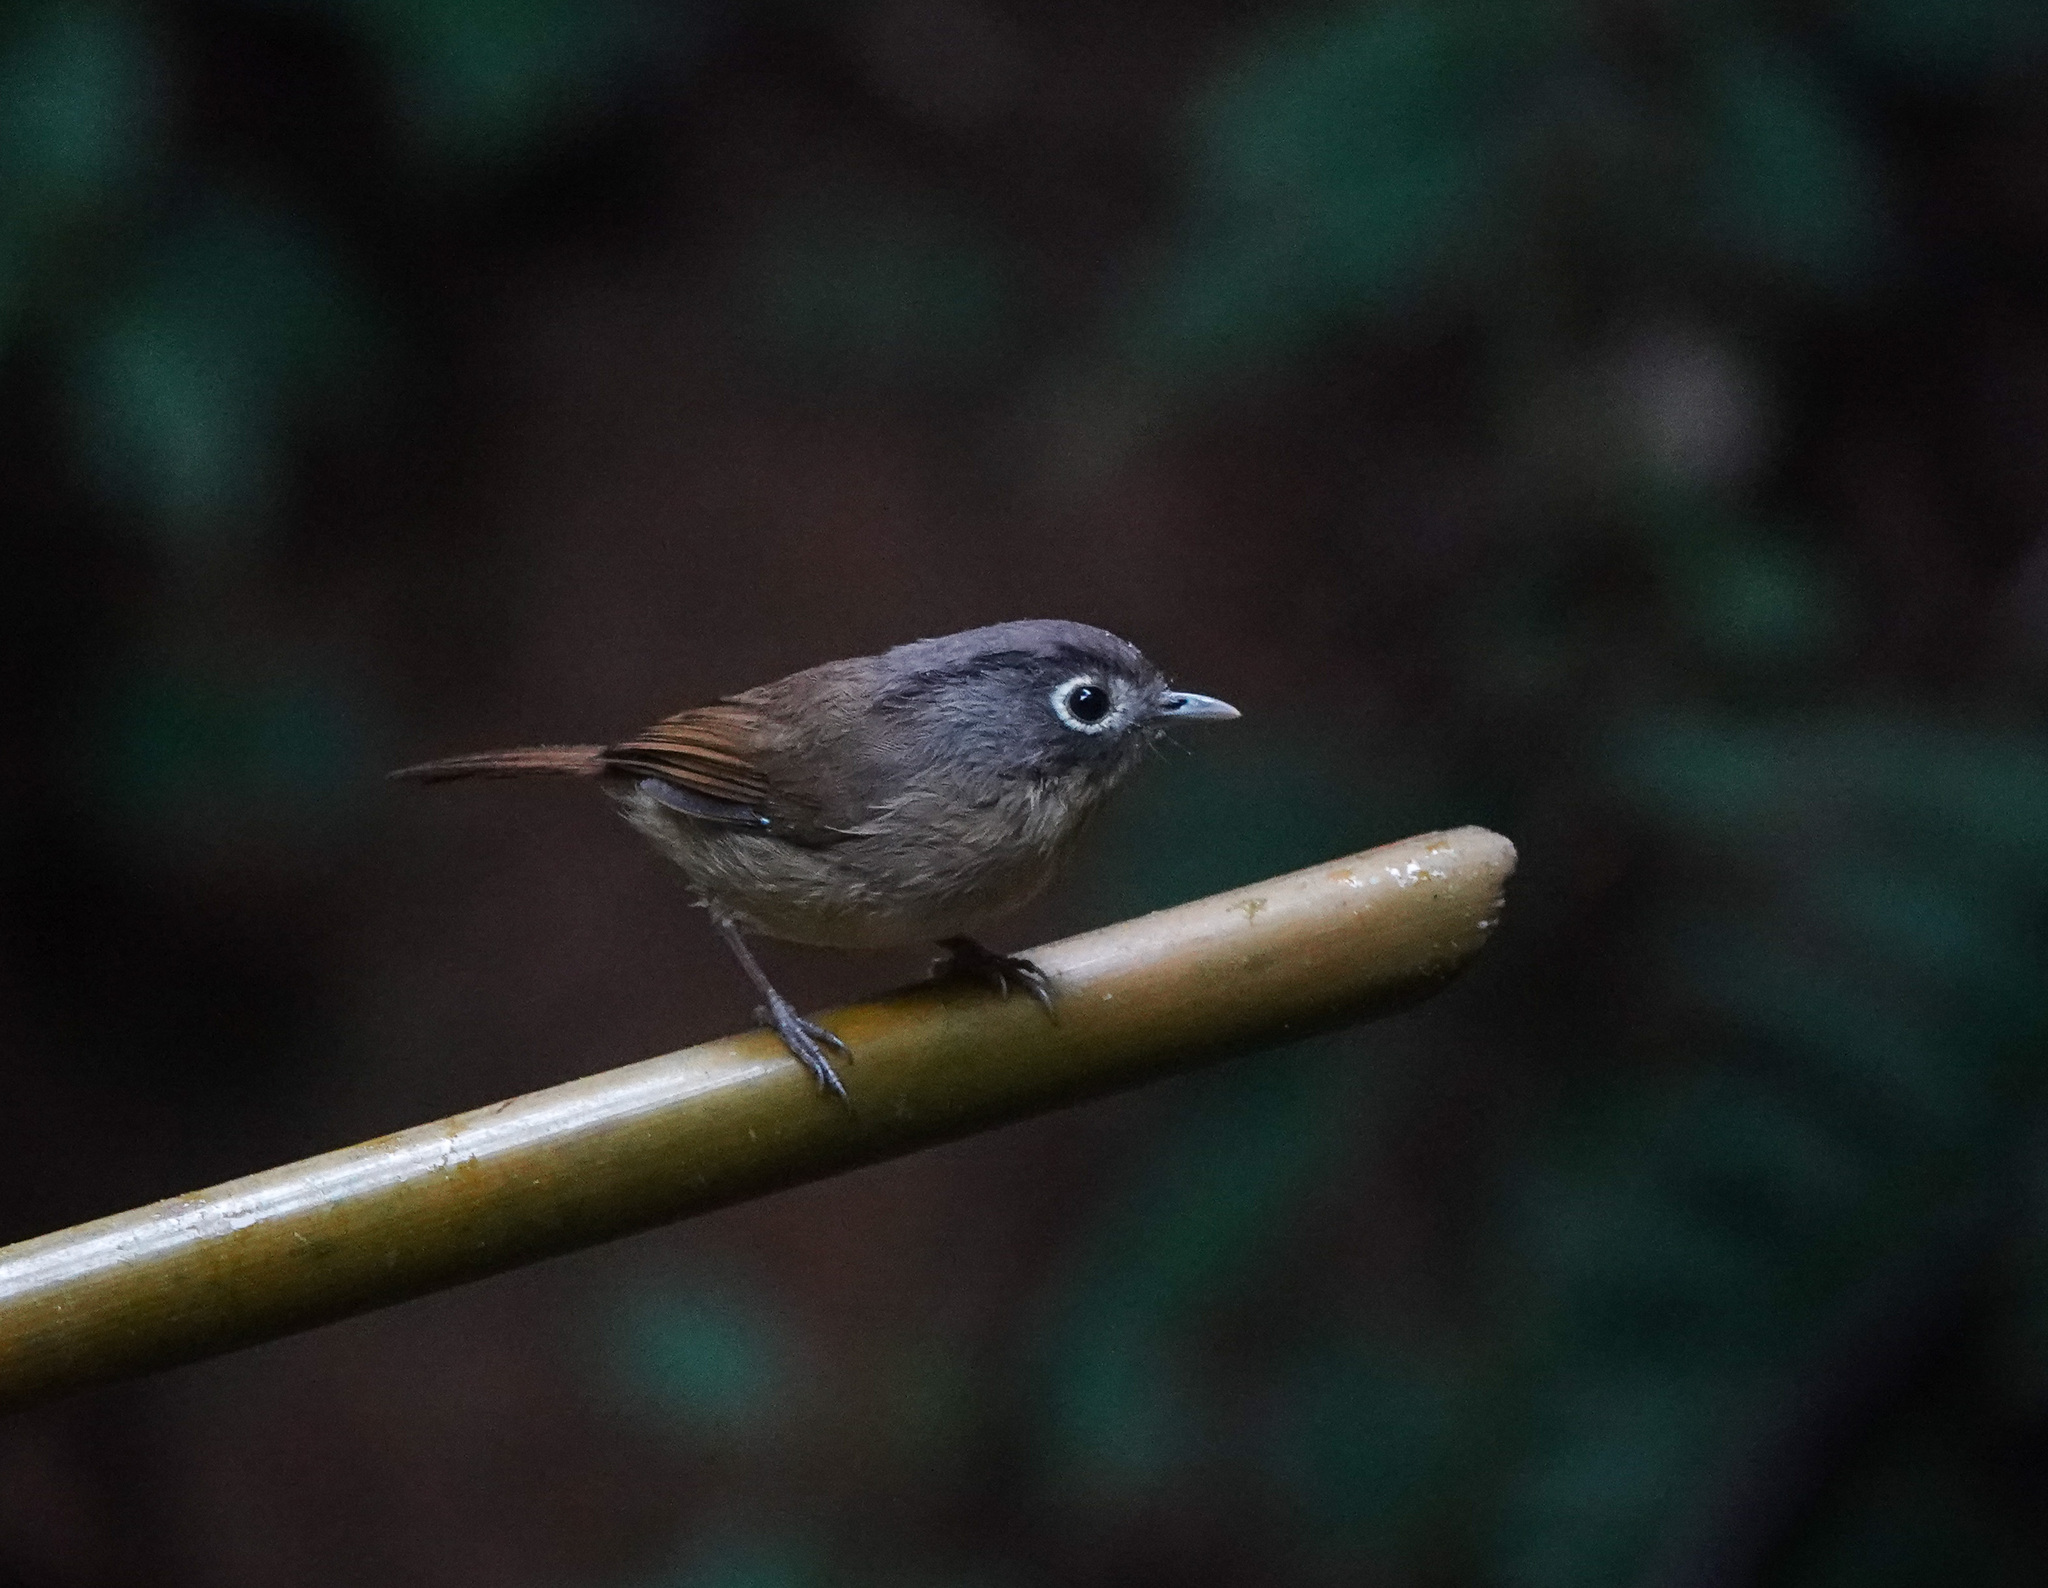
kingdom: Animalia
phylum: Chordata
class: Aves
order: Passeriformes
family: Pellorneidae
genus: Alcippe
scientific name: Alcippe nipalensis
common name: Nepal fulvetta
